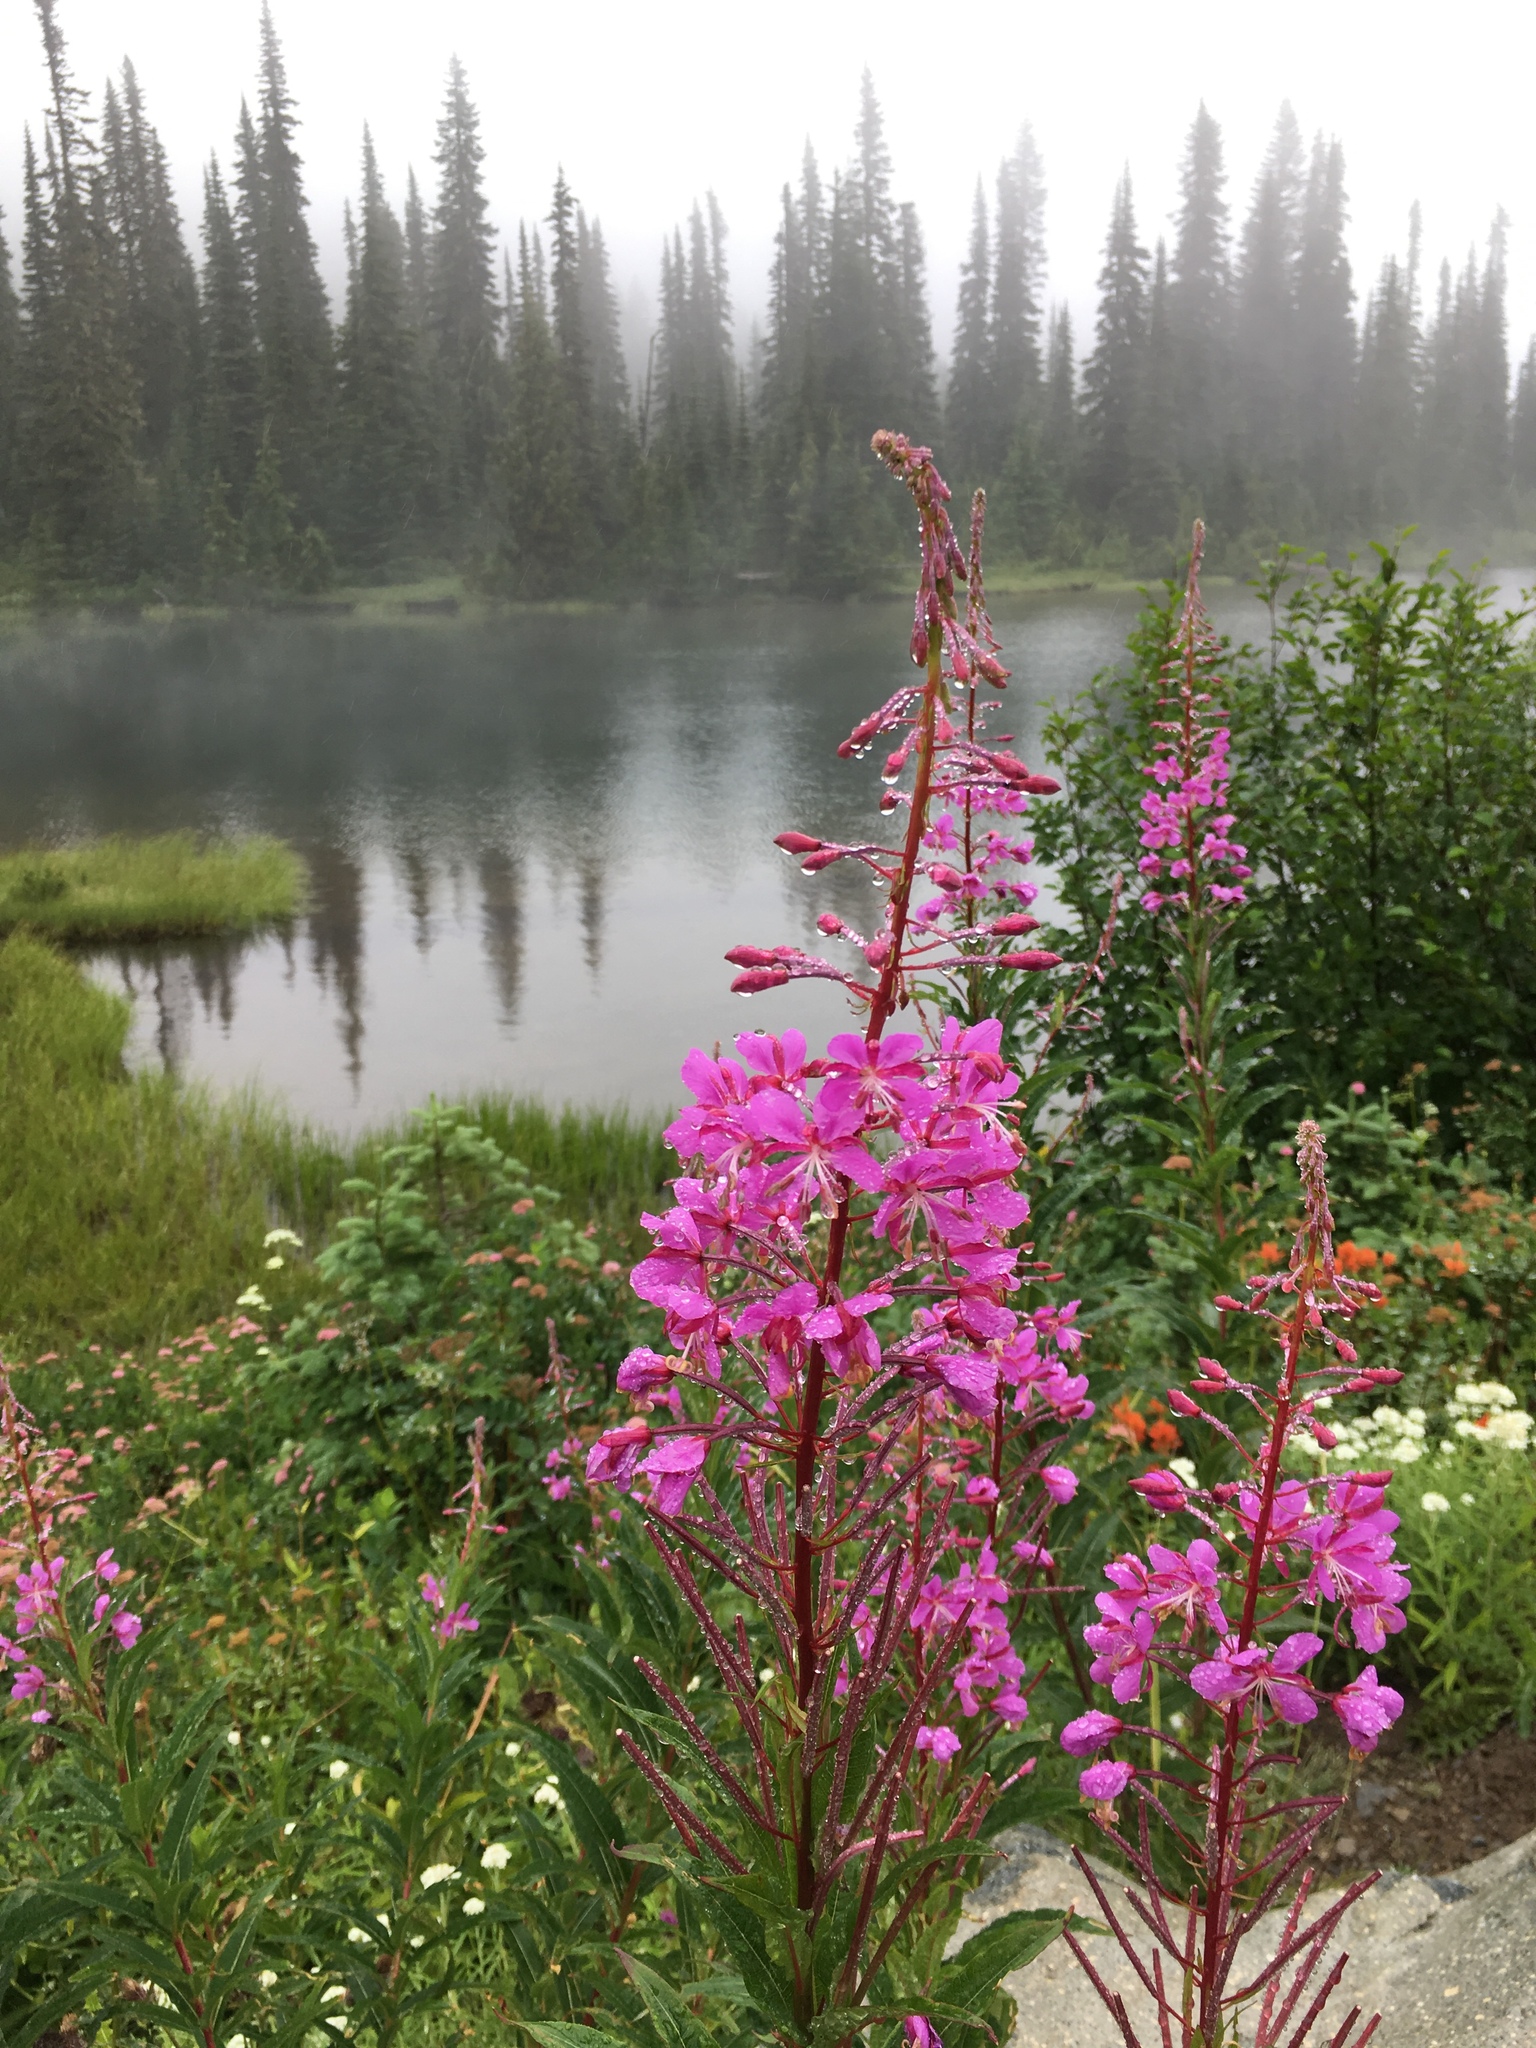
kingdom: Plantae
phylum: Tracheophyta
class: Magnoliopsida
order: Myrtales
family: Onagraceae
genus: Chamaenerion
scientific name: Chamaenerion angustifolium
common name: Fireweed
